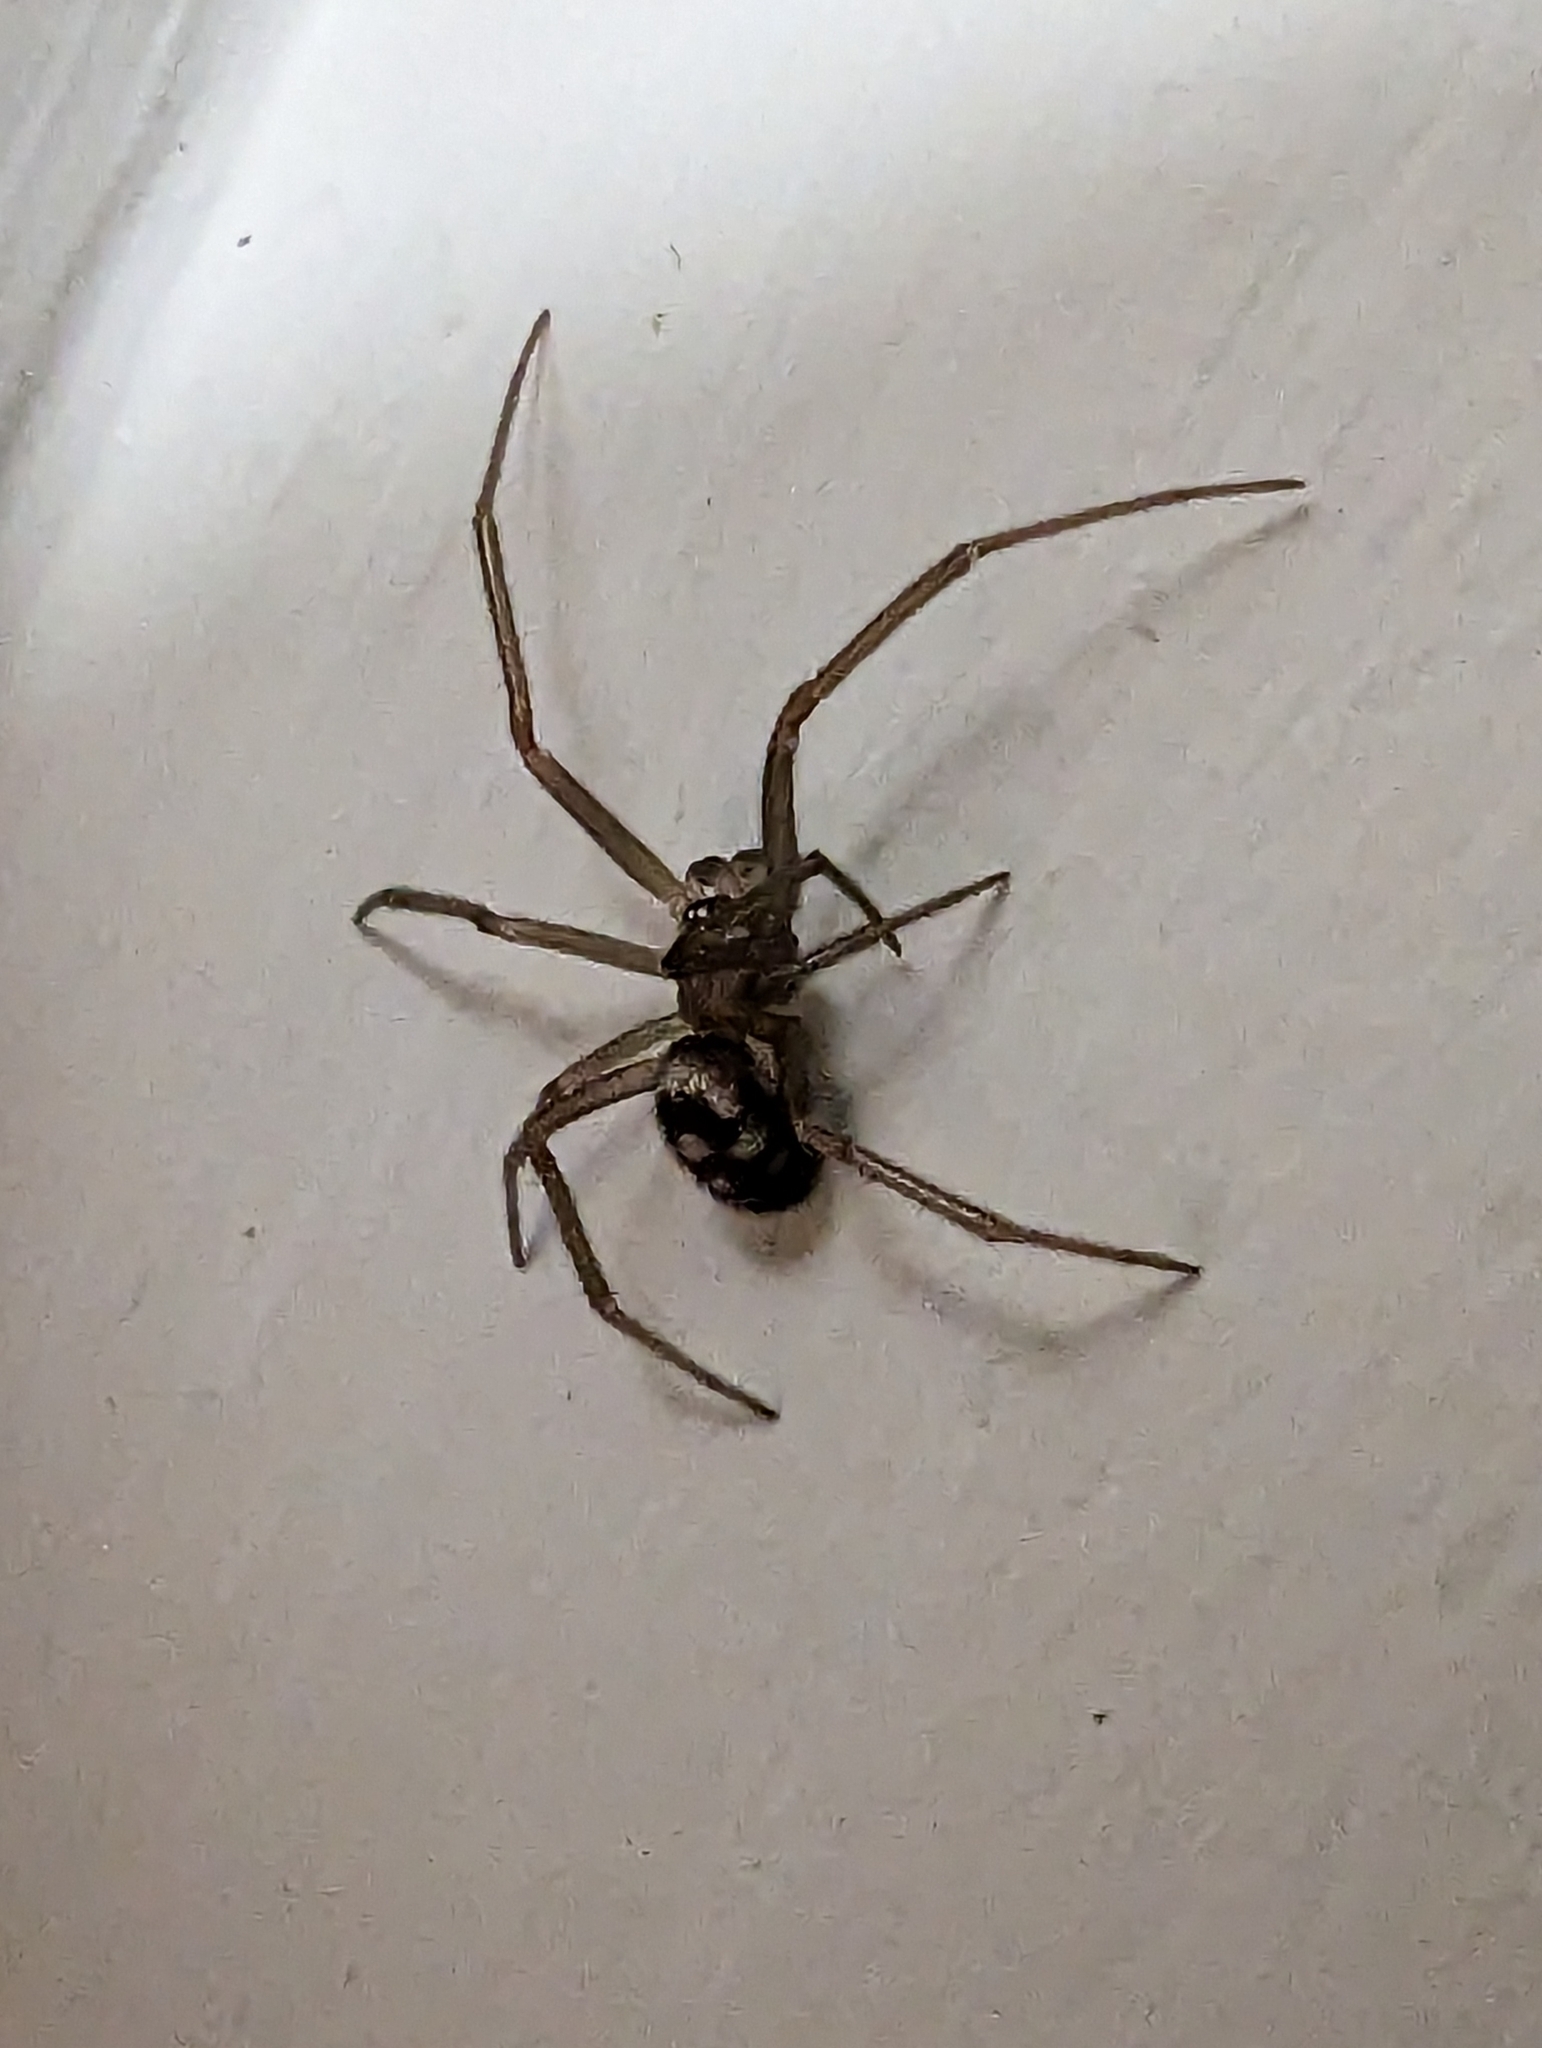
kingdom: Animalia
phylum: Arthropoda
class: Arachnida
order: Araneae
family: Theridiidae
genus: Steatoda
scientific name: Steatoda grossa
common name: False black widow
